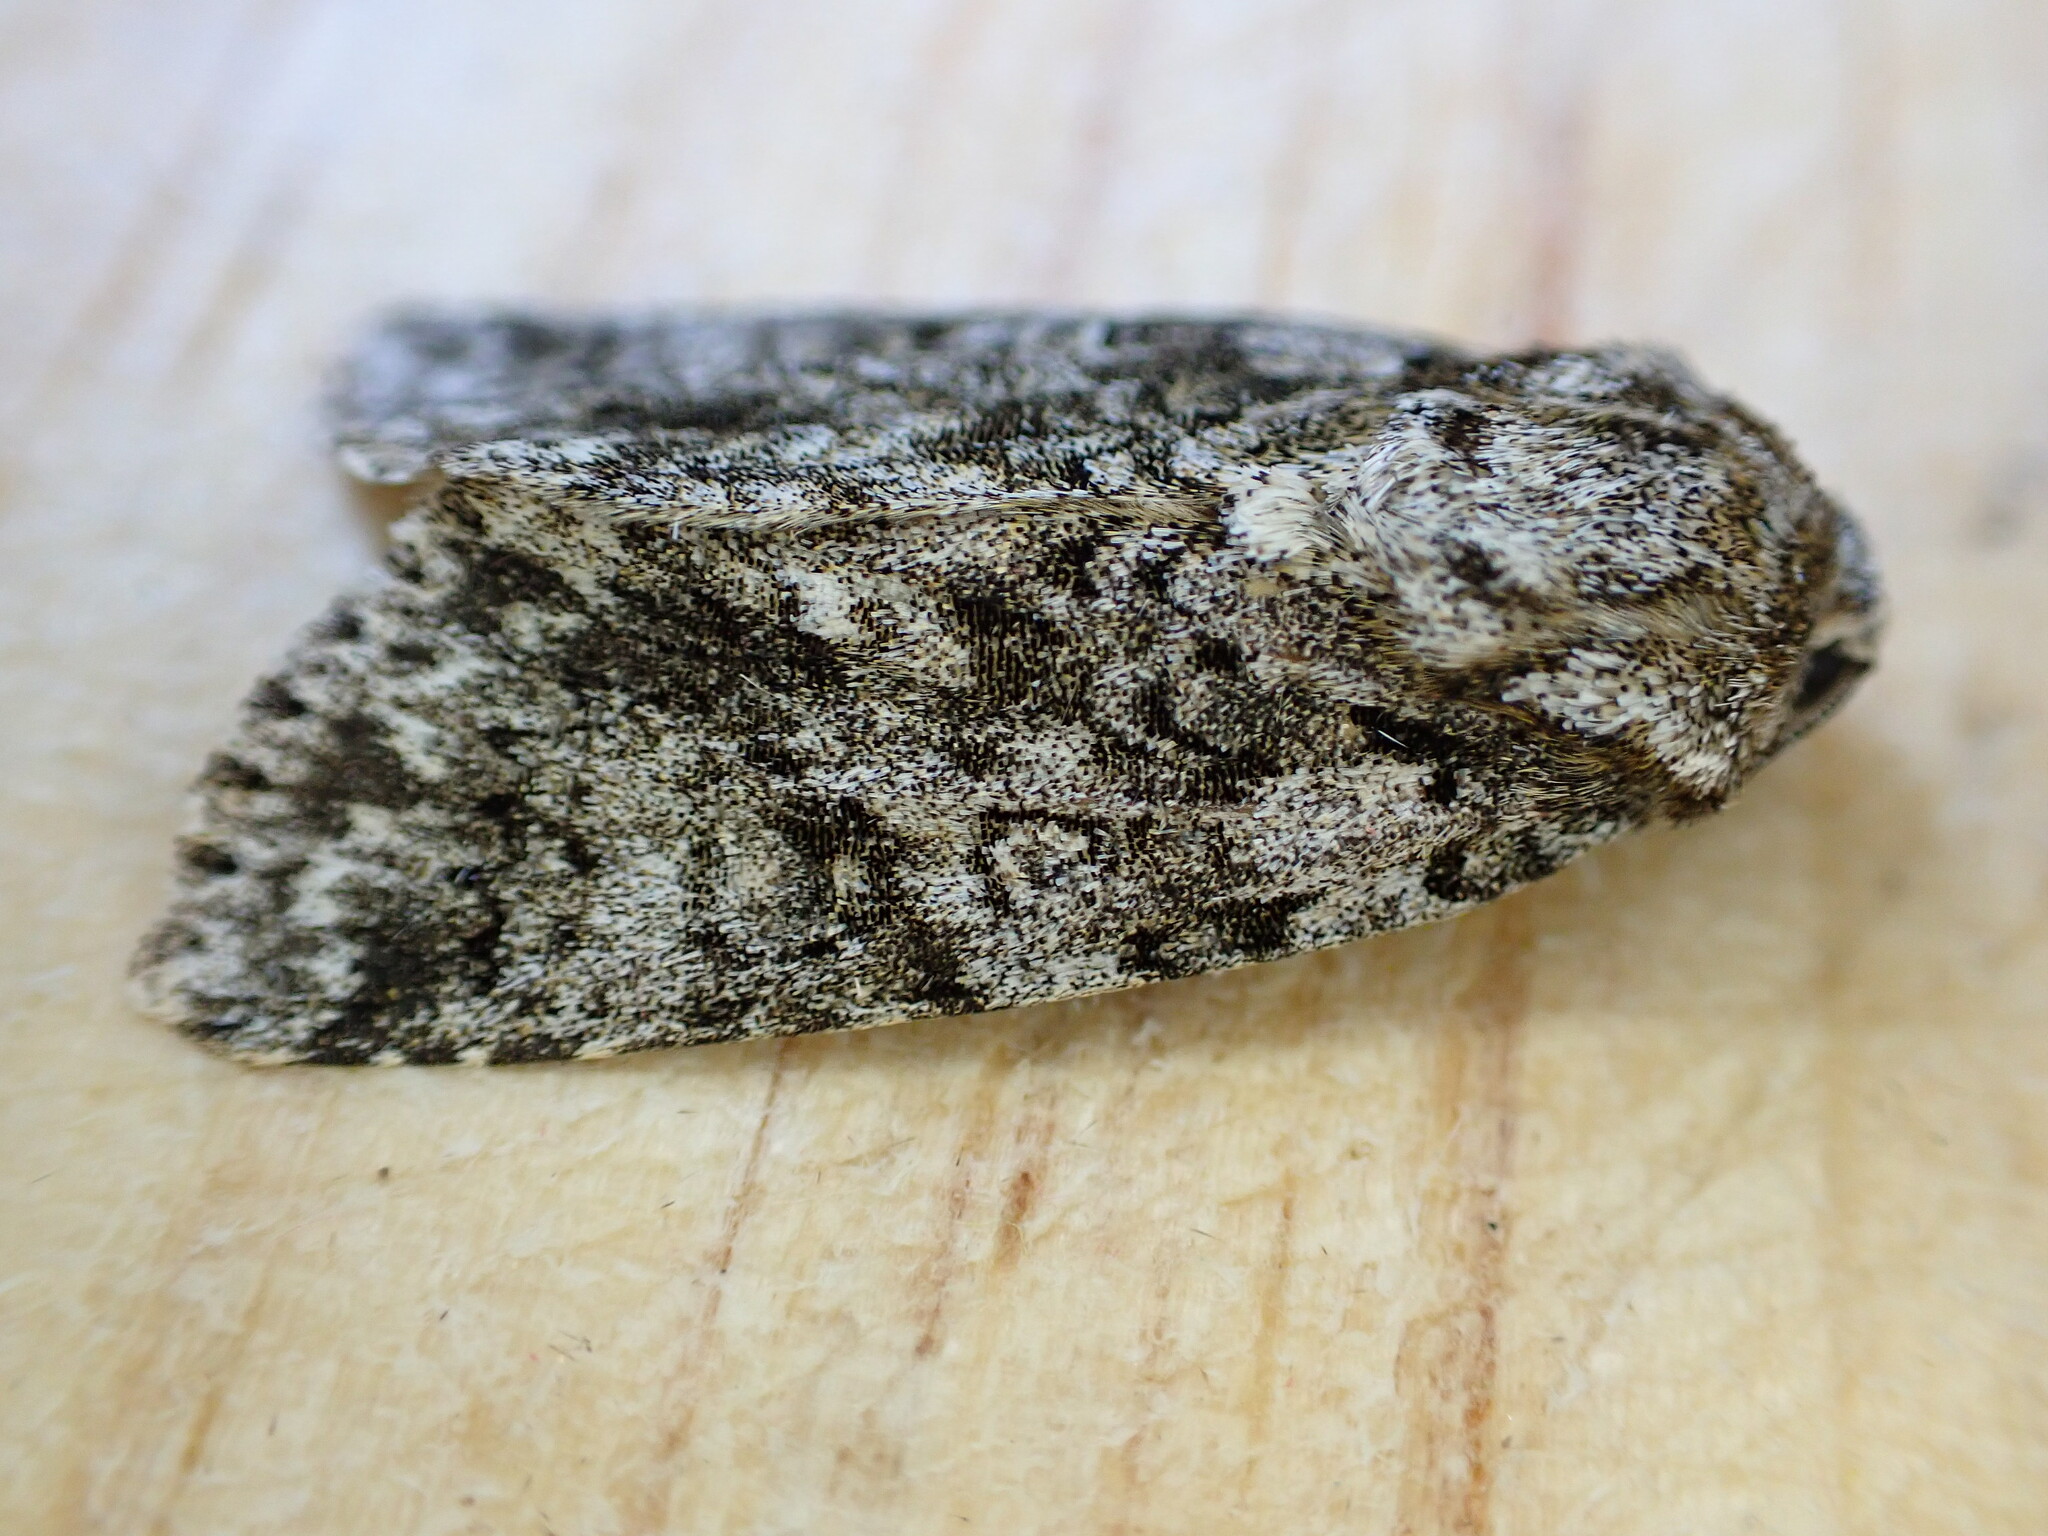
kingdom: Animalia
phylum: Arthropoda
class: Insecta
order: Lepidoptera
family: Noctuidae
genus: Acronicta
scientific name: Acronicta rumicis
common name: Knot grass
